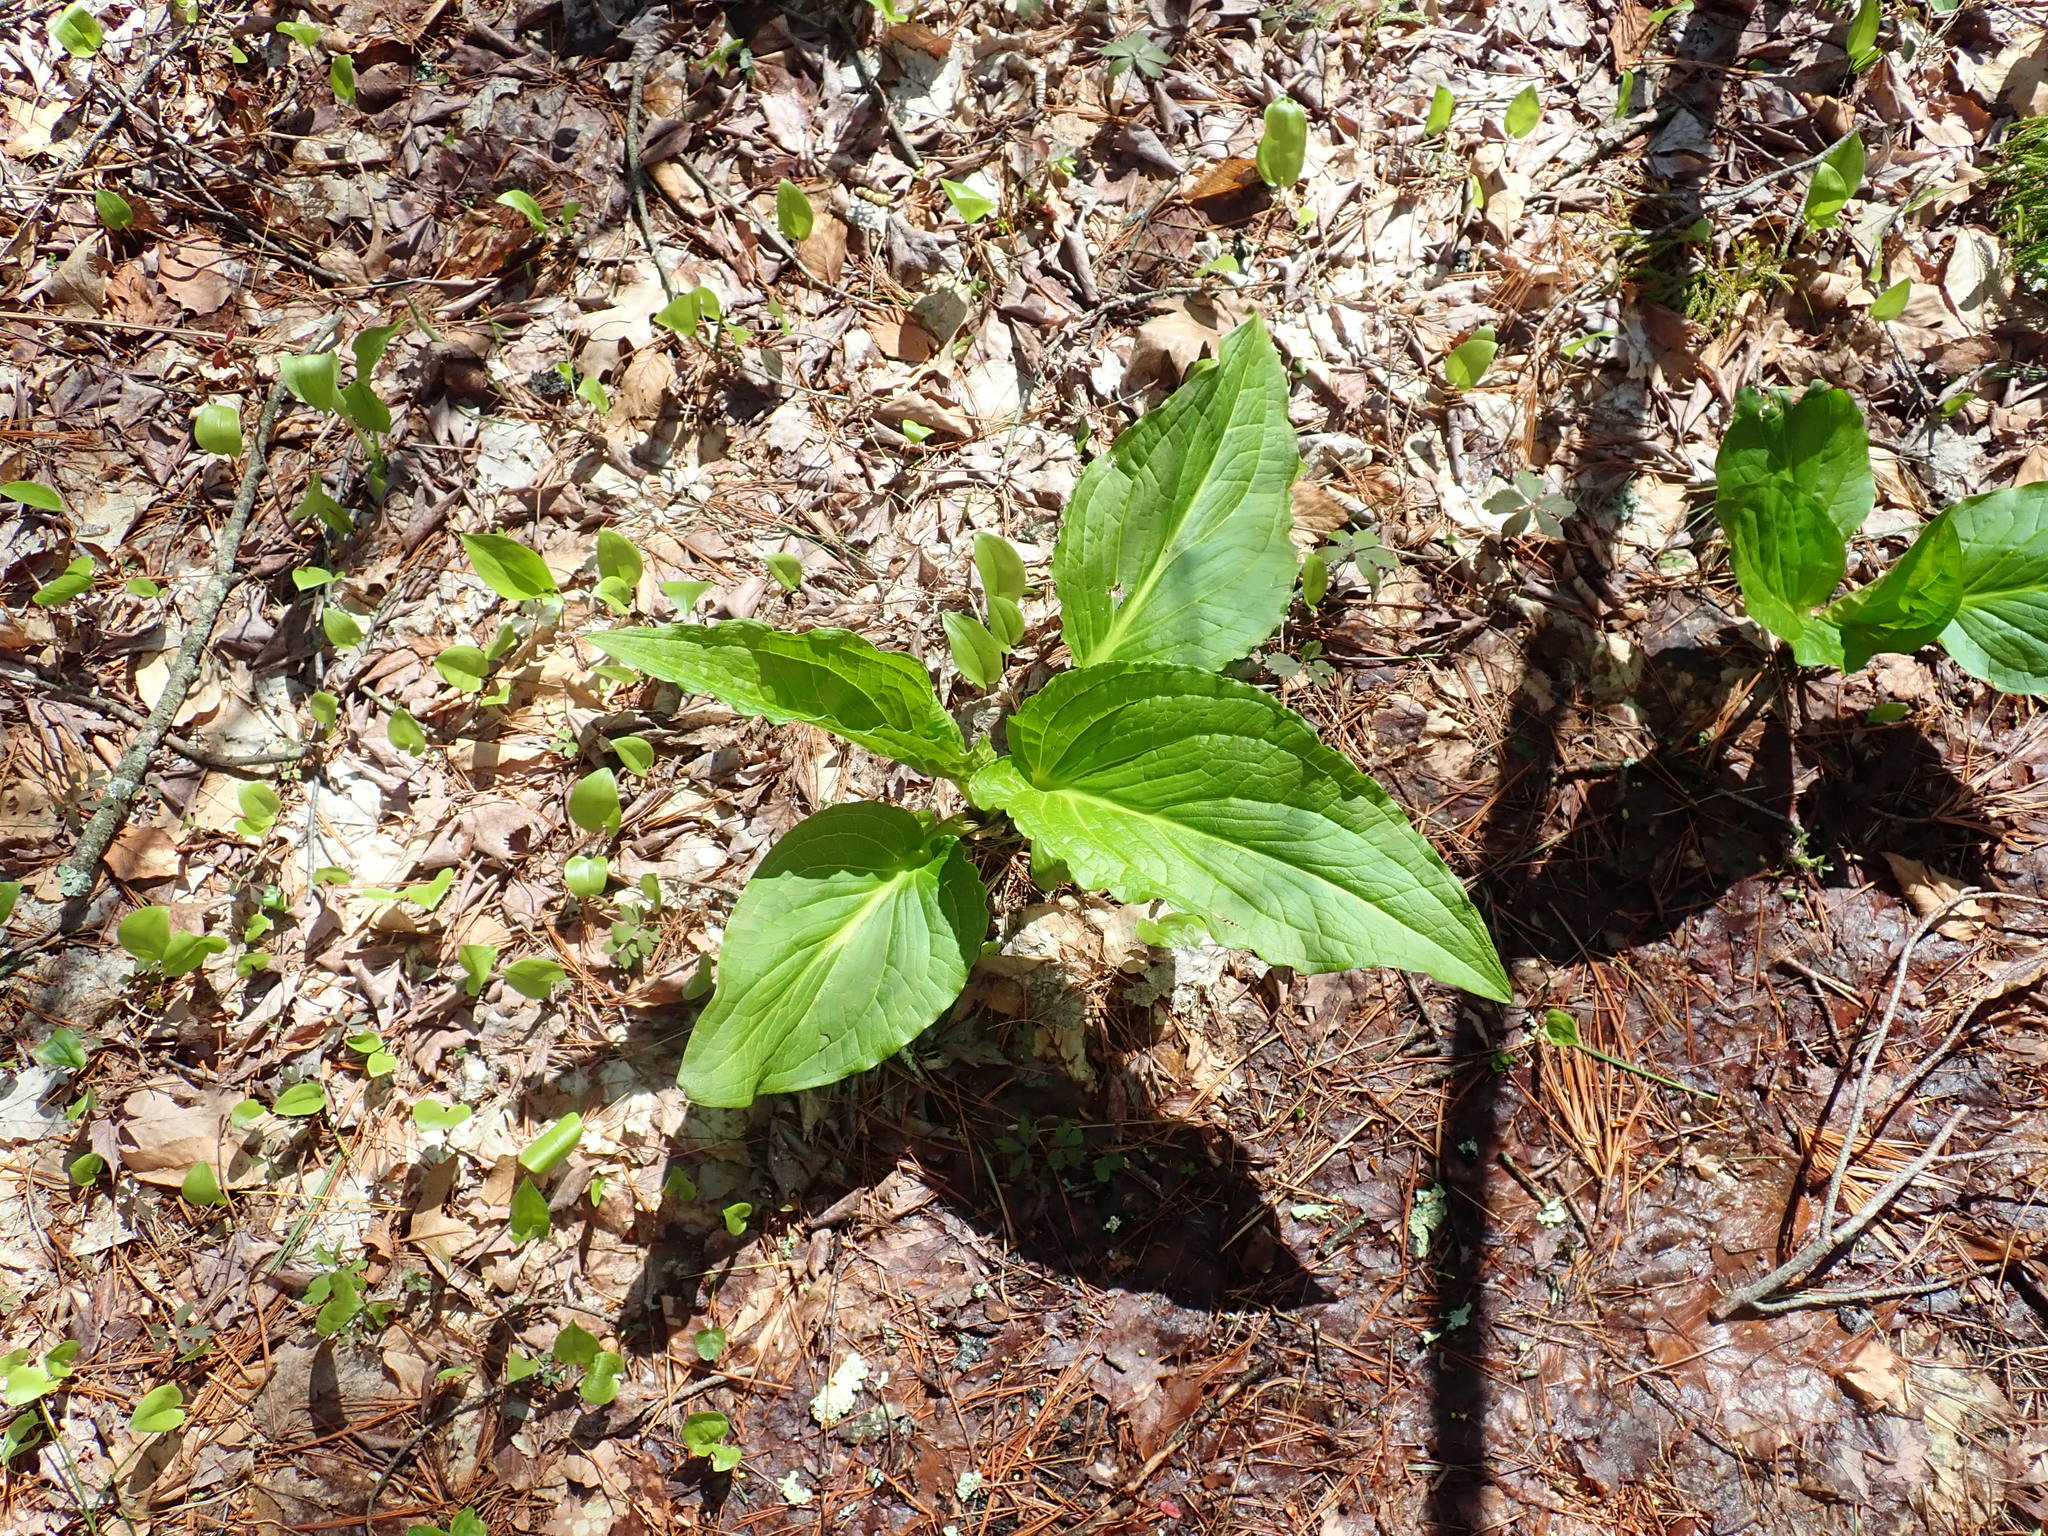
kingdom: Plantae
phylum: Tracheophyta
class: Liliopsida
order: Alismatales
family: Araceae
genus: Symplocarpus
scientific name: Symplocarpus foetidus
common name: Eastern skunk cabbage
